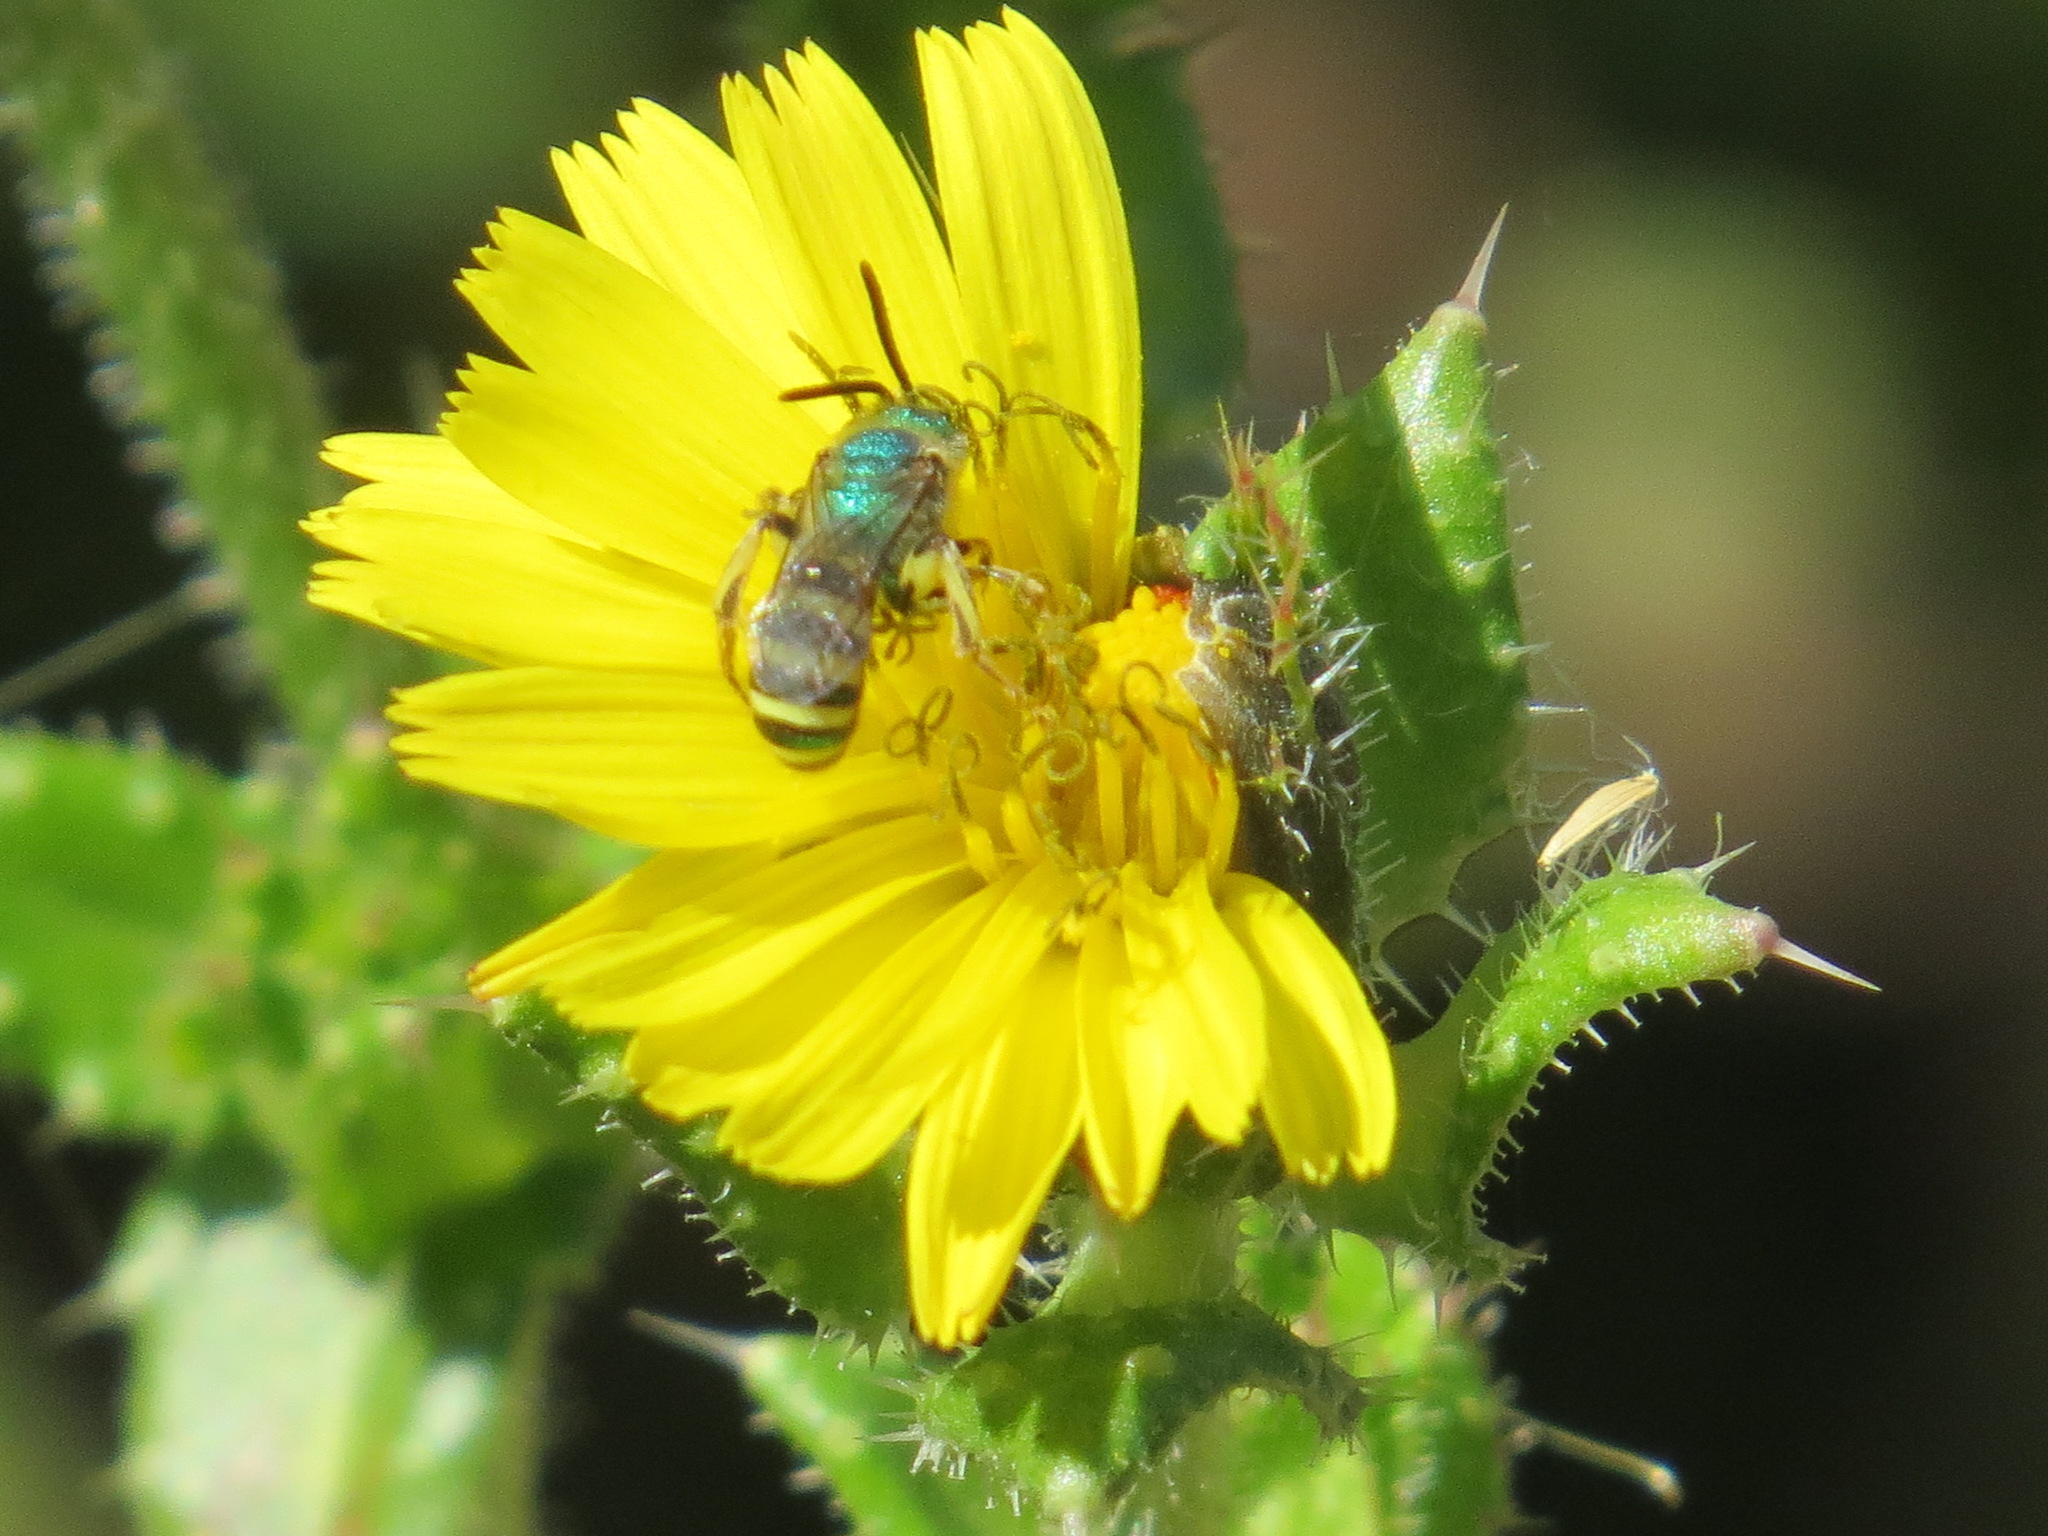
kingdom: Animalia
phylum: Arthropoda
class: Insecta
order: Hymenoptera
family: Halictidae
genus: Agapostemon
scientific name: Agapostemon texanus
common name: Texas striped sweat bee
